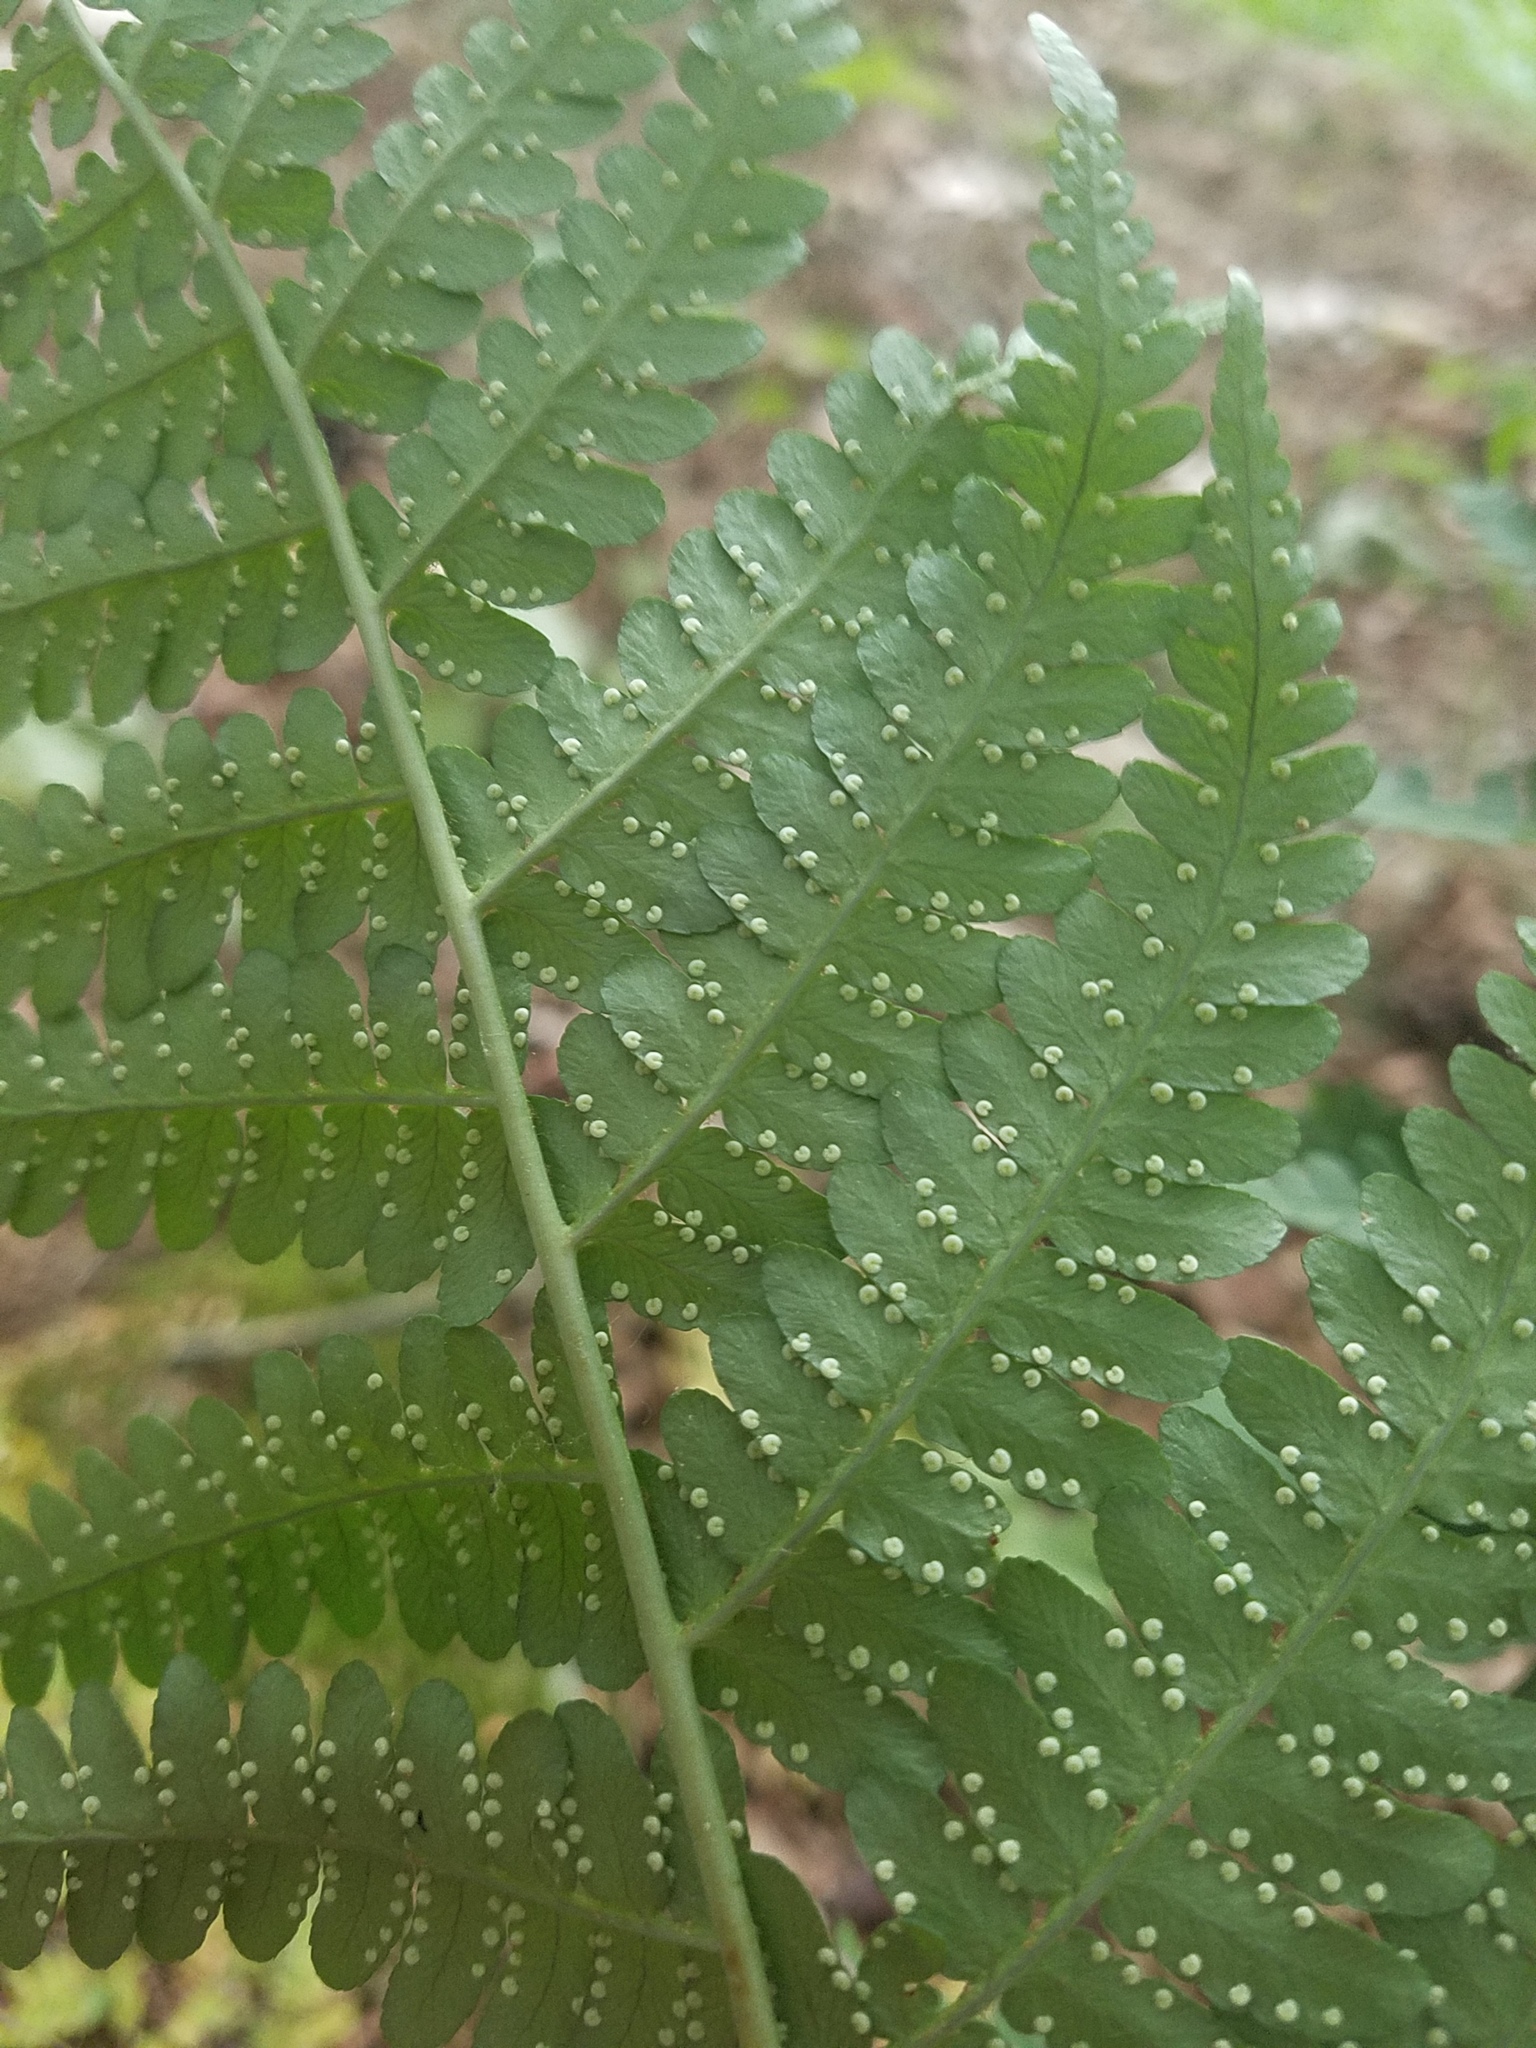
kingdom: Plantae
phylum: Tracheophyta
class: Polypodiopsida
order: Polypodiales
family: Dryopteridaceae
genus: Dryopteris
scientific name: Dryopteris marginalis
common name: Marginal wood fern
